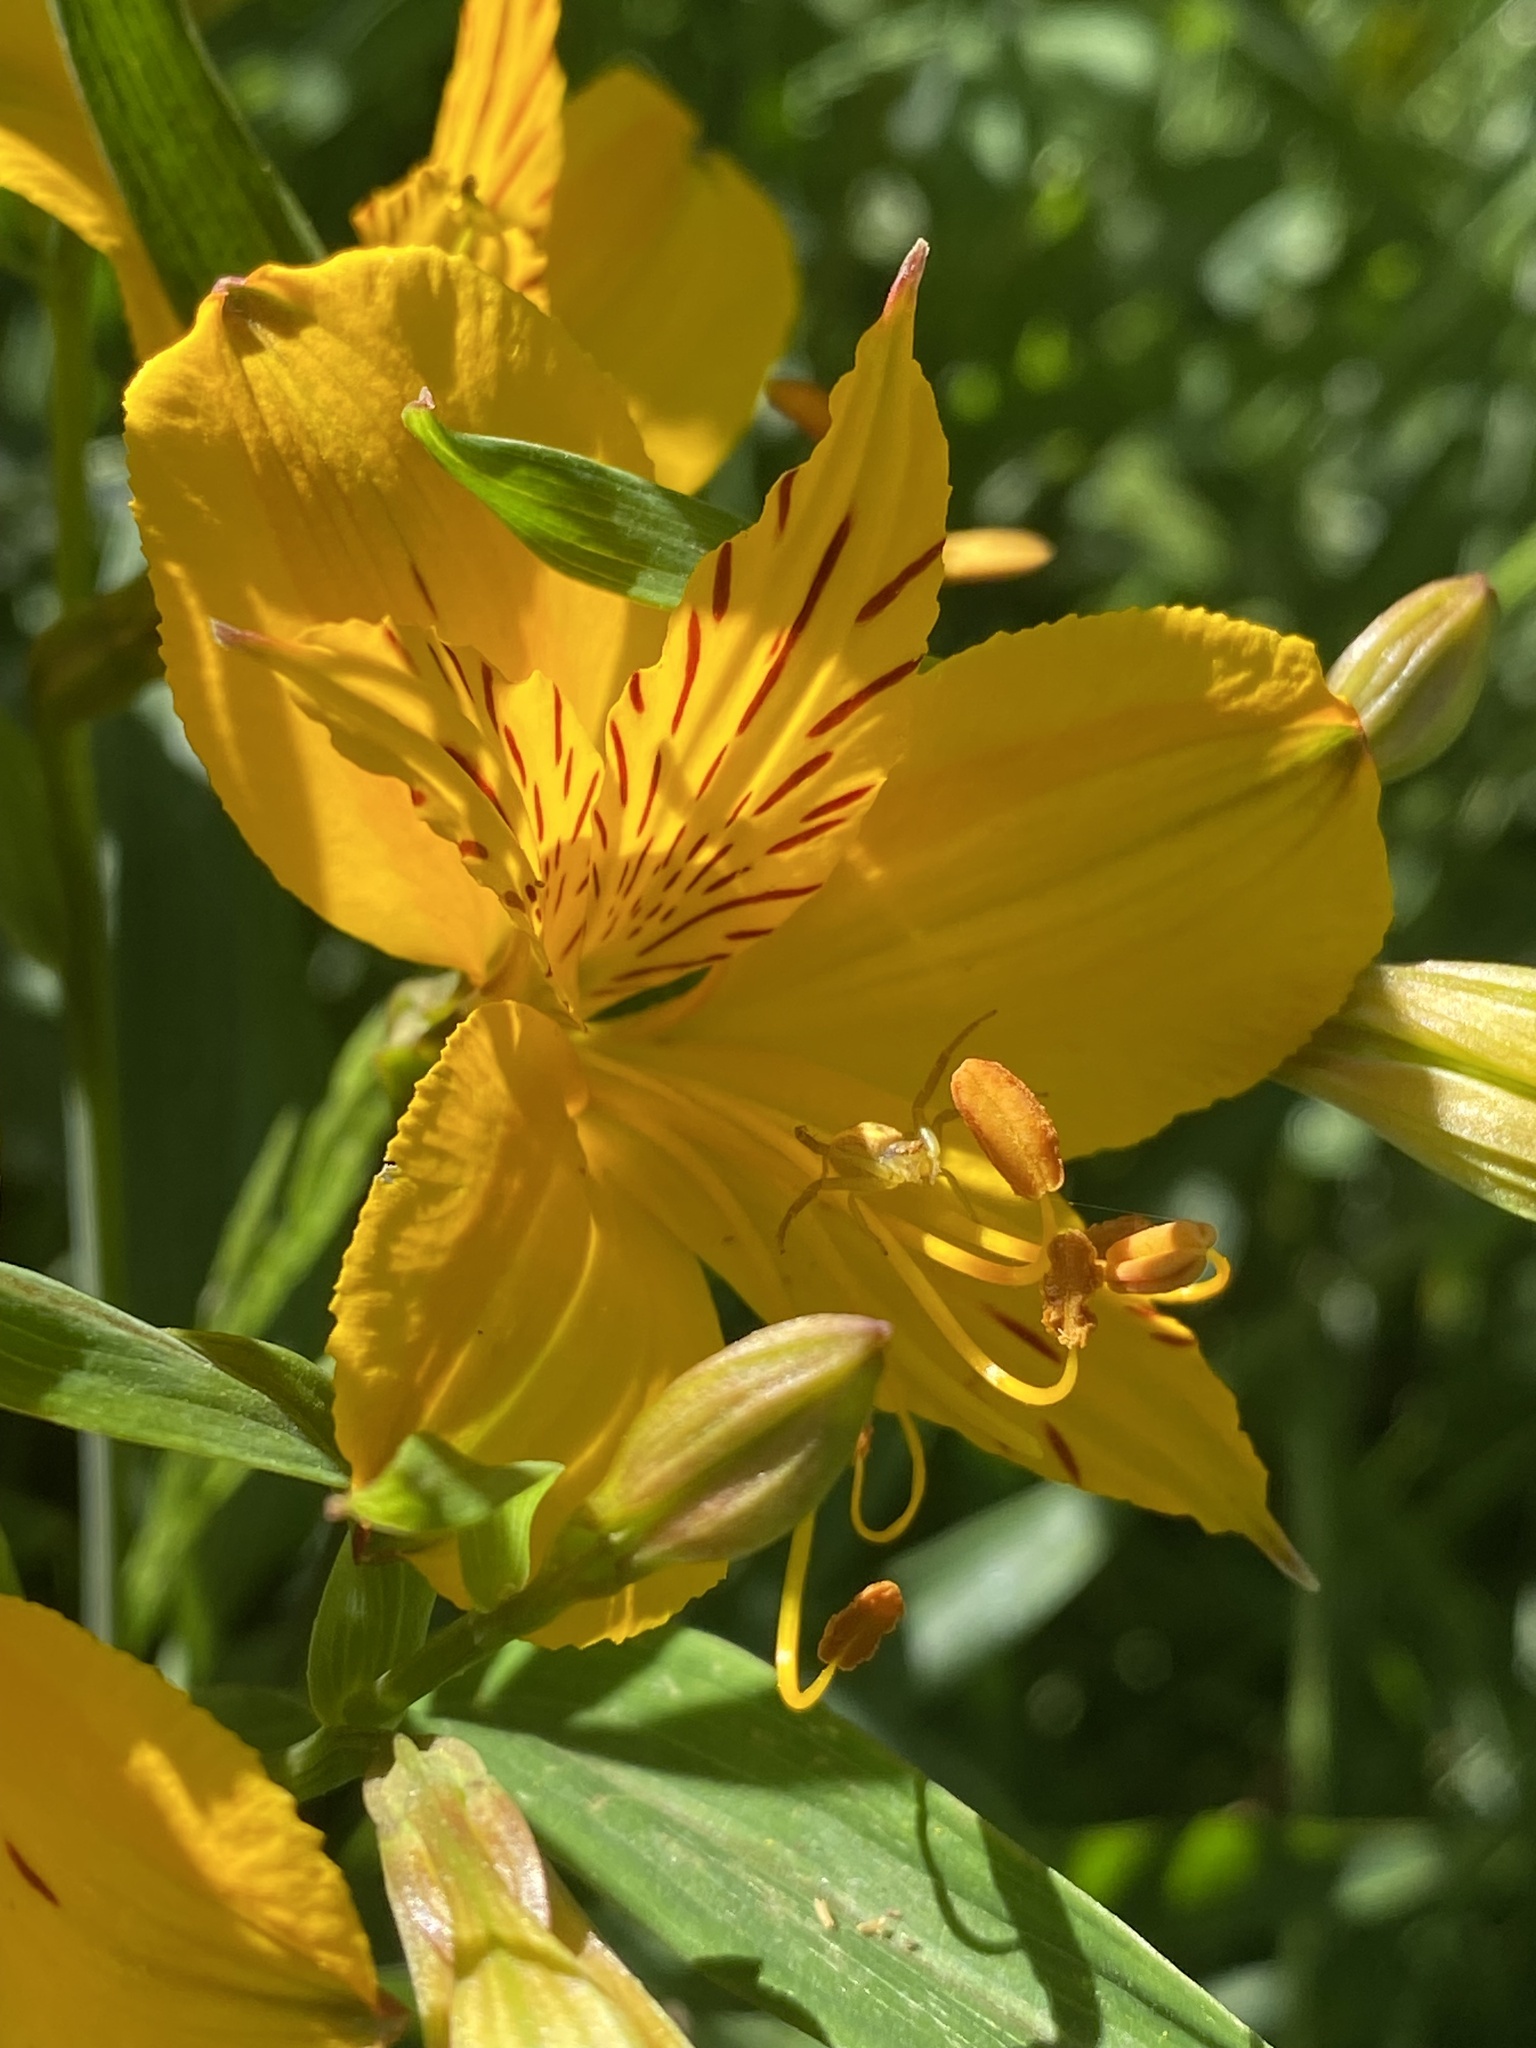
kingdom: Plantae
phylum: Tracheophyta
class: Liliopsida
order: Liliales
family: Alstroemeriaceae
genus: Alstroemeria
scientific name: Alstroemeria aurea
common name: Peruvian lily
